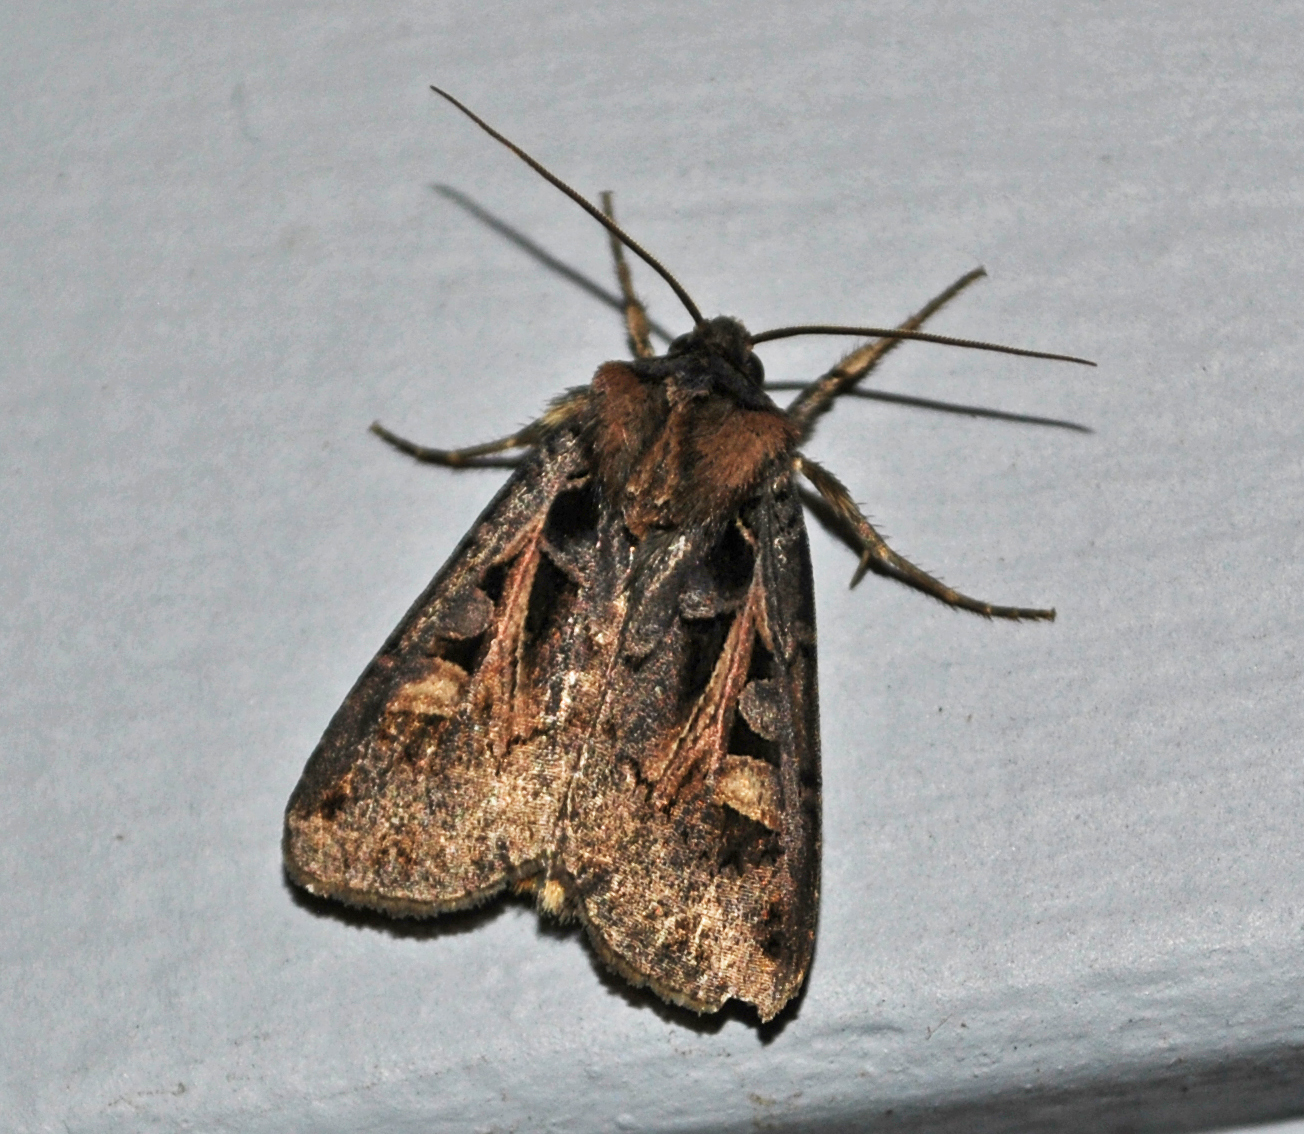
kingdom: Animalia
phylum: Arthropoda
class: Insecta
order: Lepidoptera
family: Noctuidae
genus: Feltia
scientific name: Feltia herilis
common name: Master's dart
